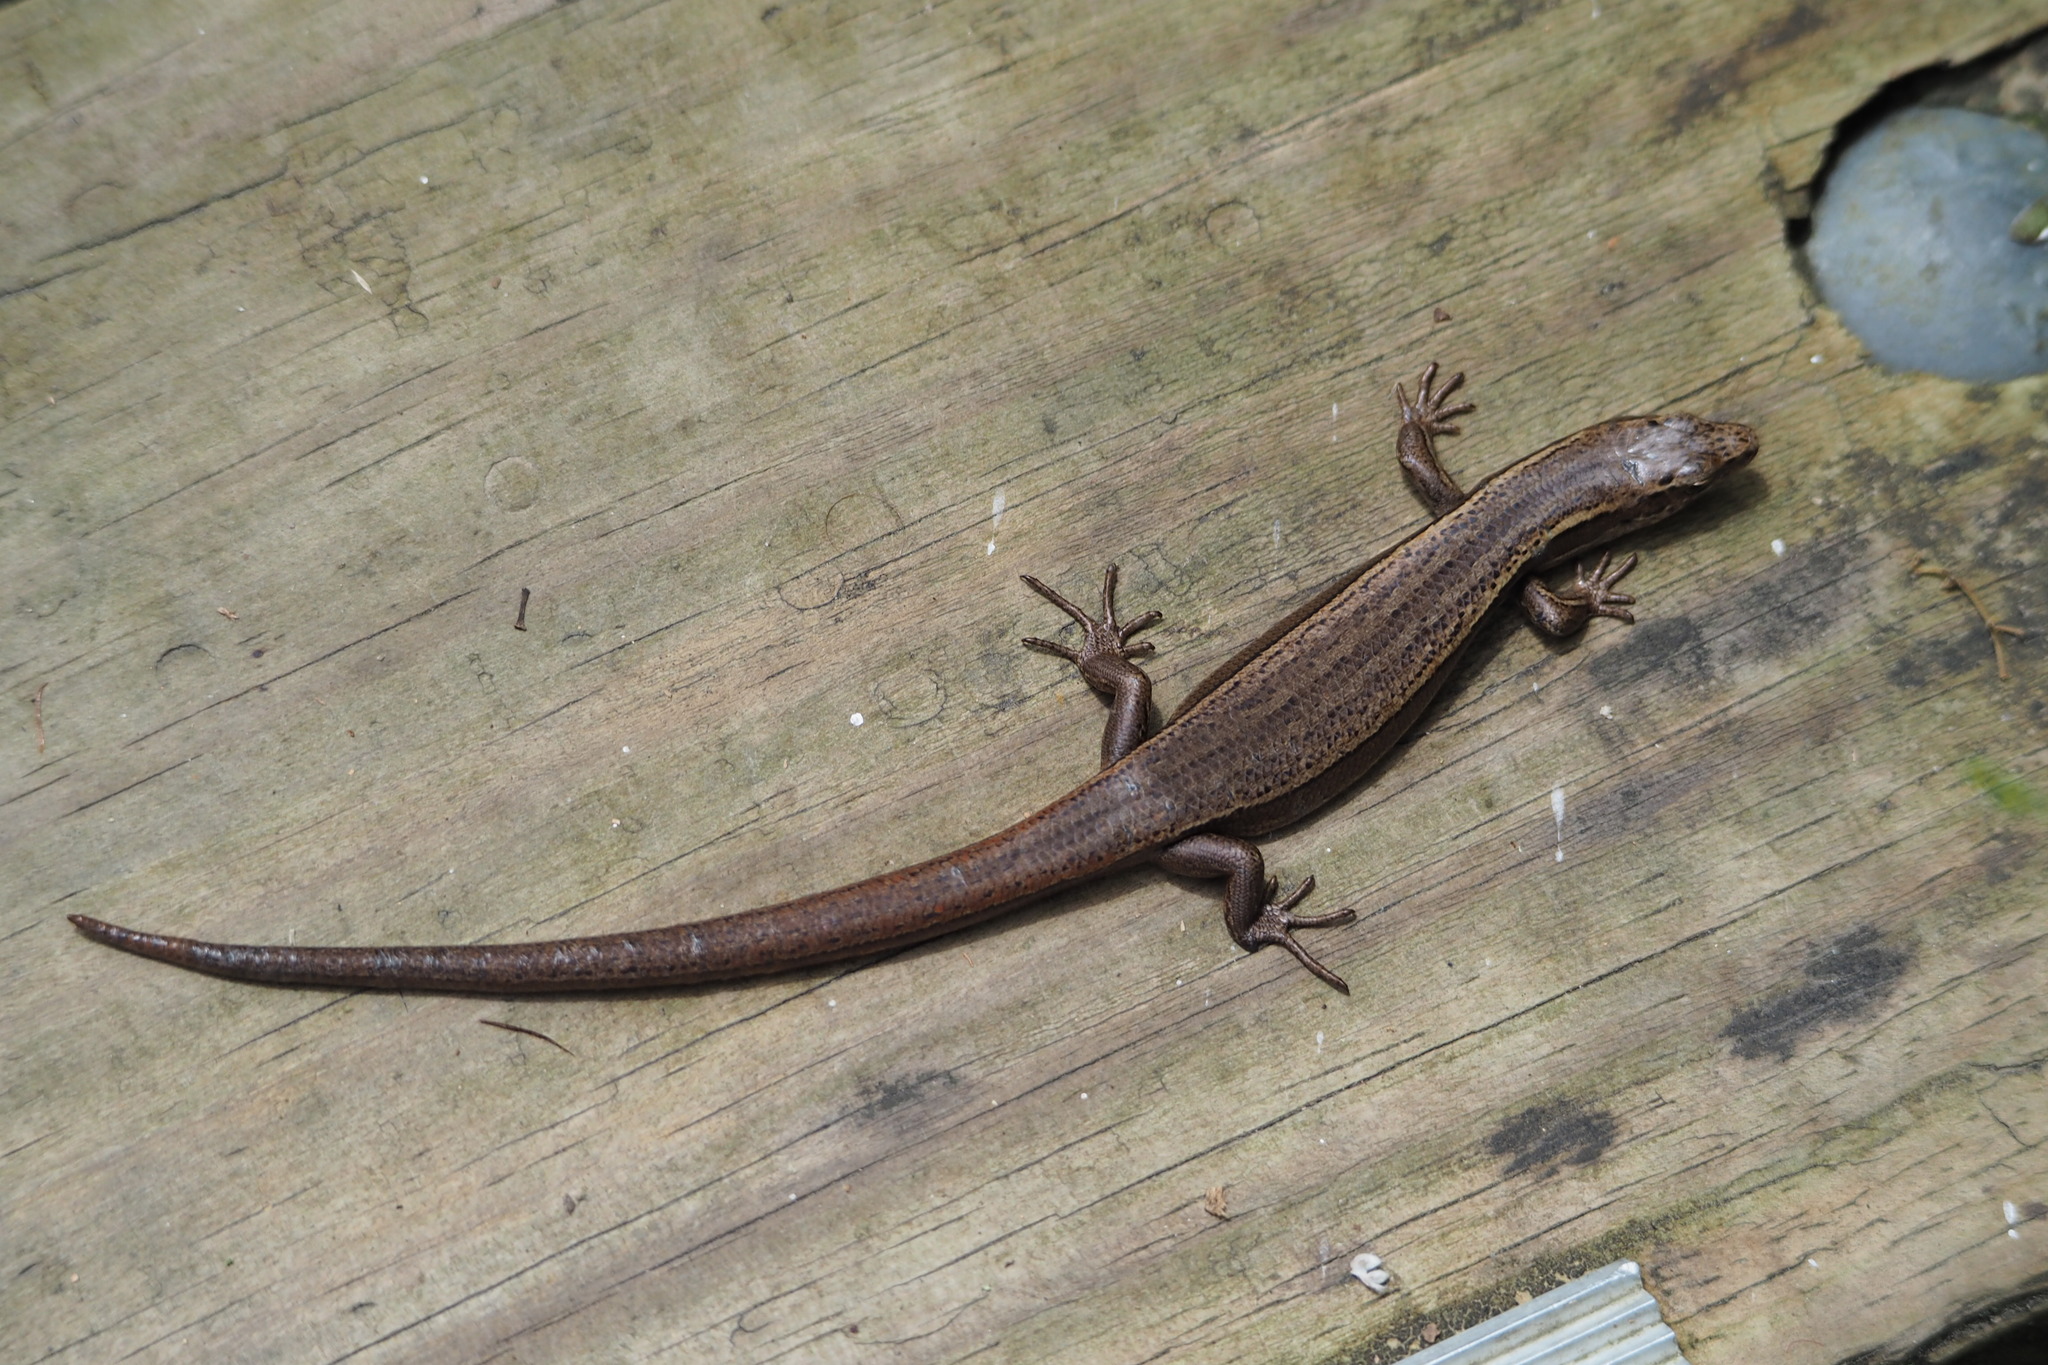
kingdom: Animalia
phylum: Chordata
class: Squamata
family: Scincidae
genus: Oligosoma
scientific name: Oligosoma zelandicum
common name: Brown skink
